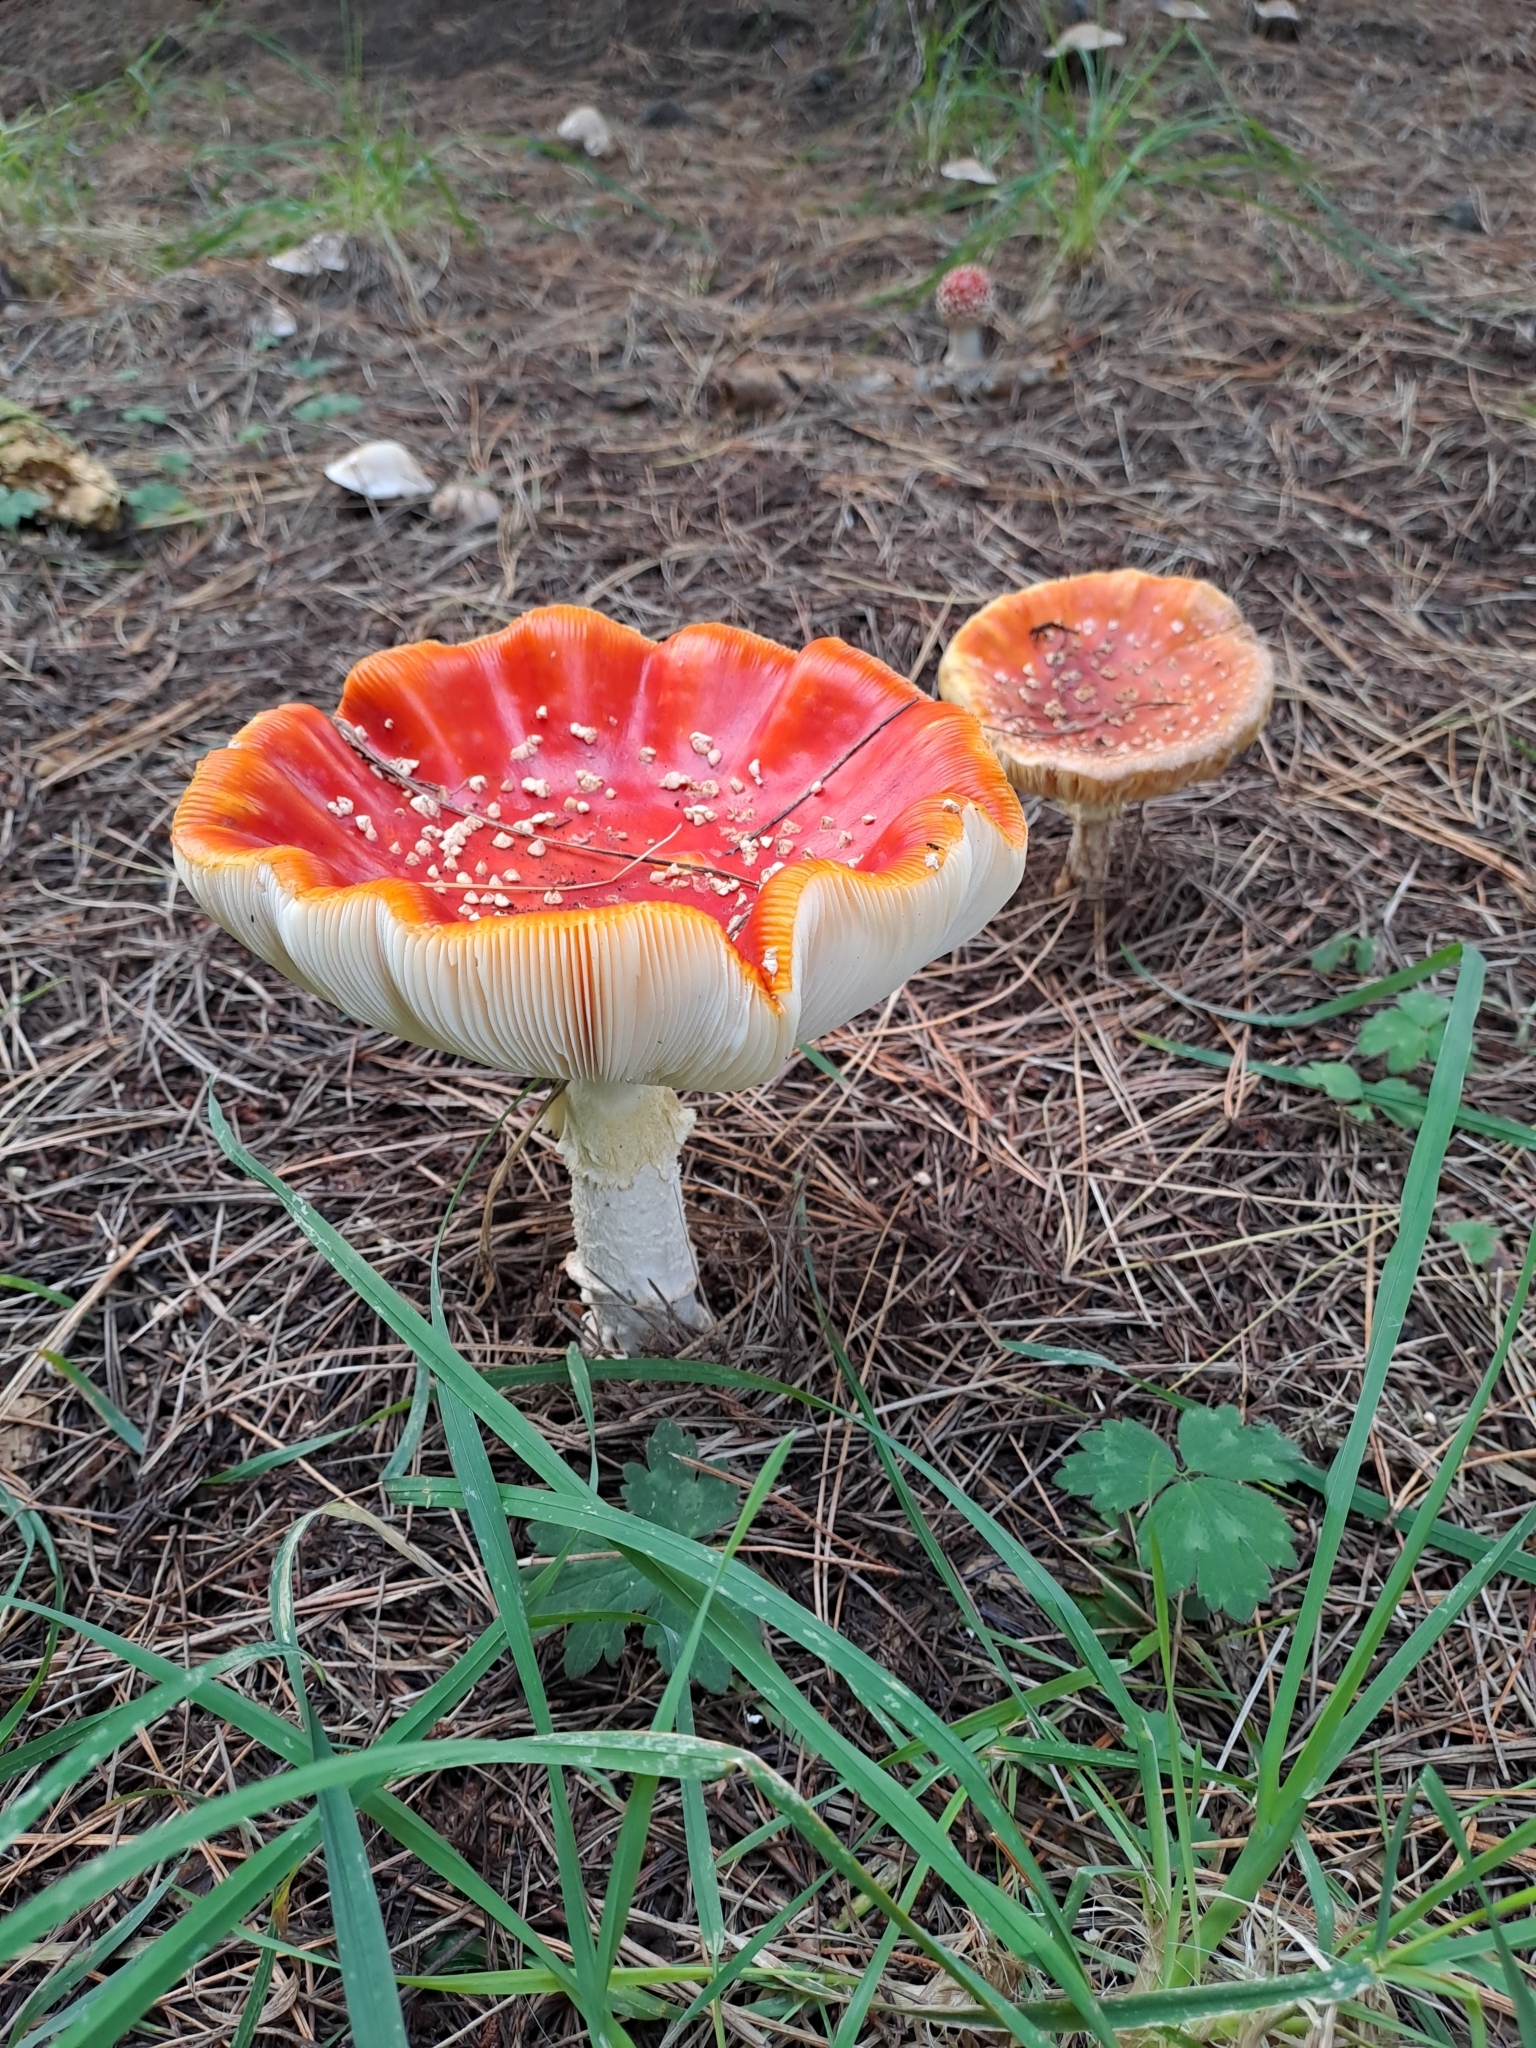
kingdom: Fungi
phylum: Basidiomycota
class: Agaricomycetes
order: Agaricales
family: Amanitaceae
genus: Amanita
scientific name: Amanita muscaria
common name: Fly agaric
